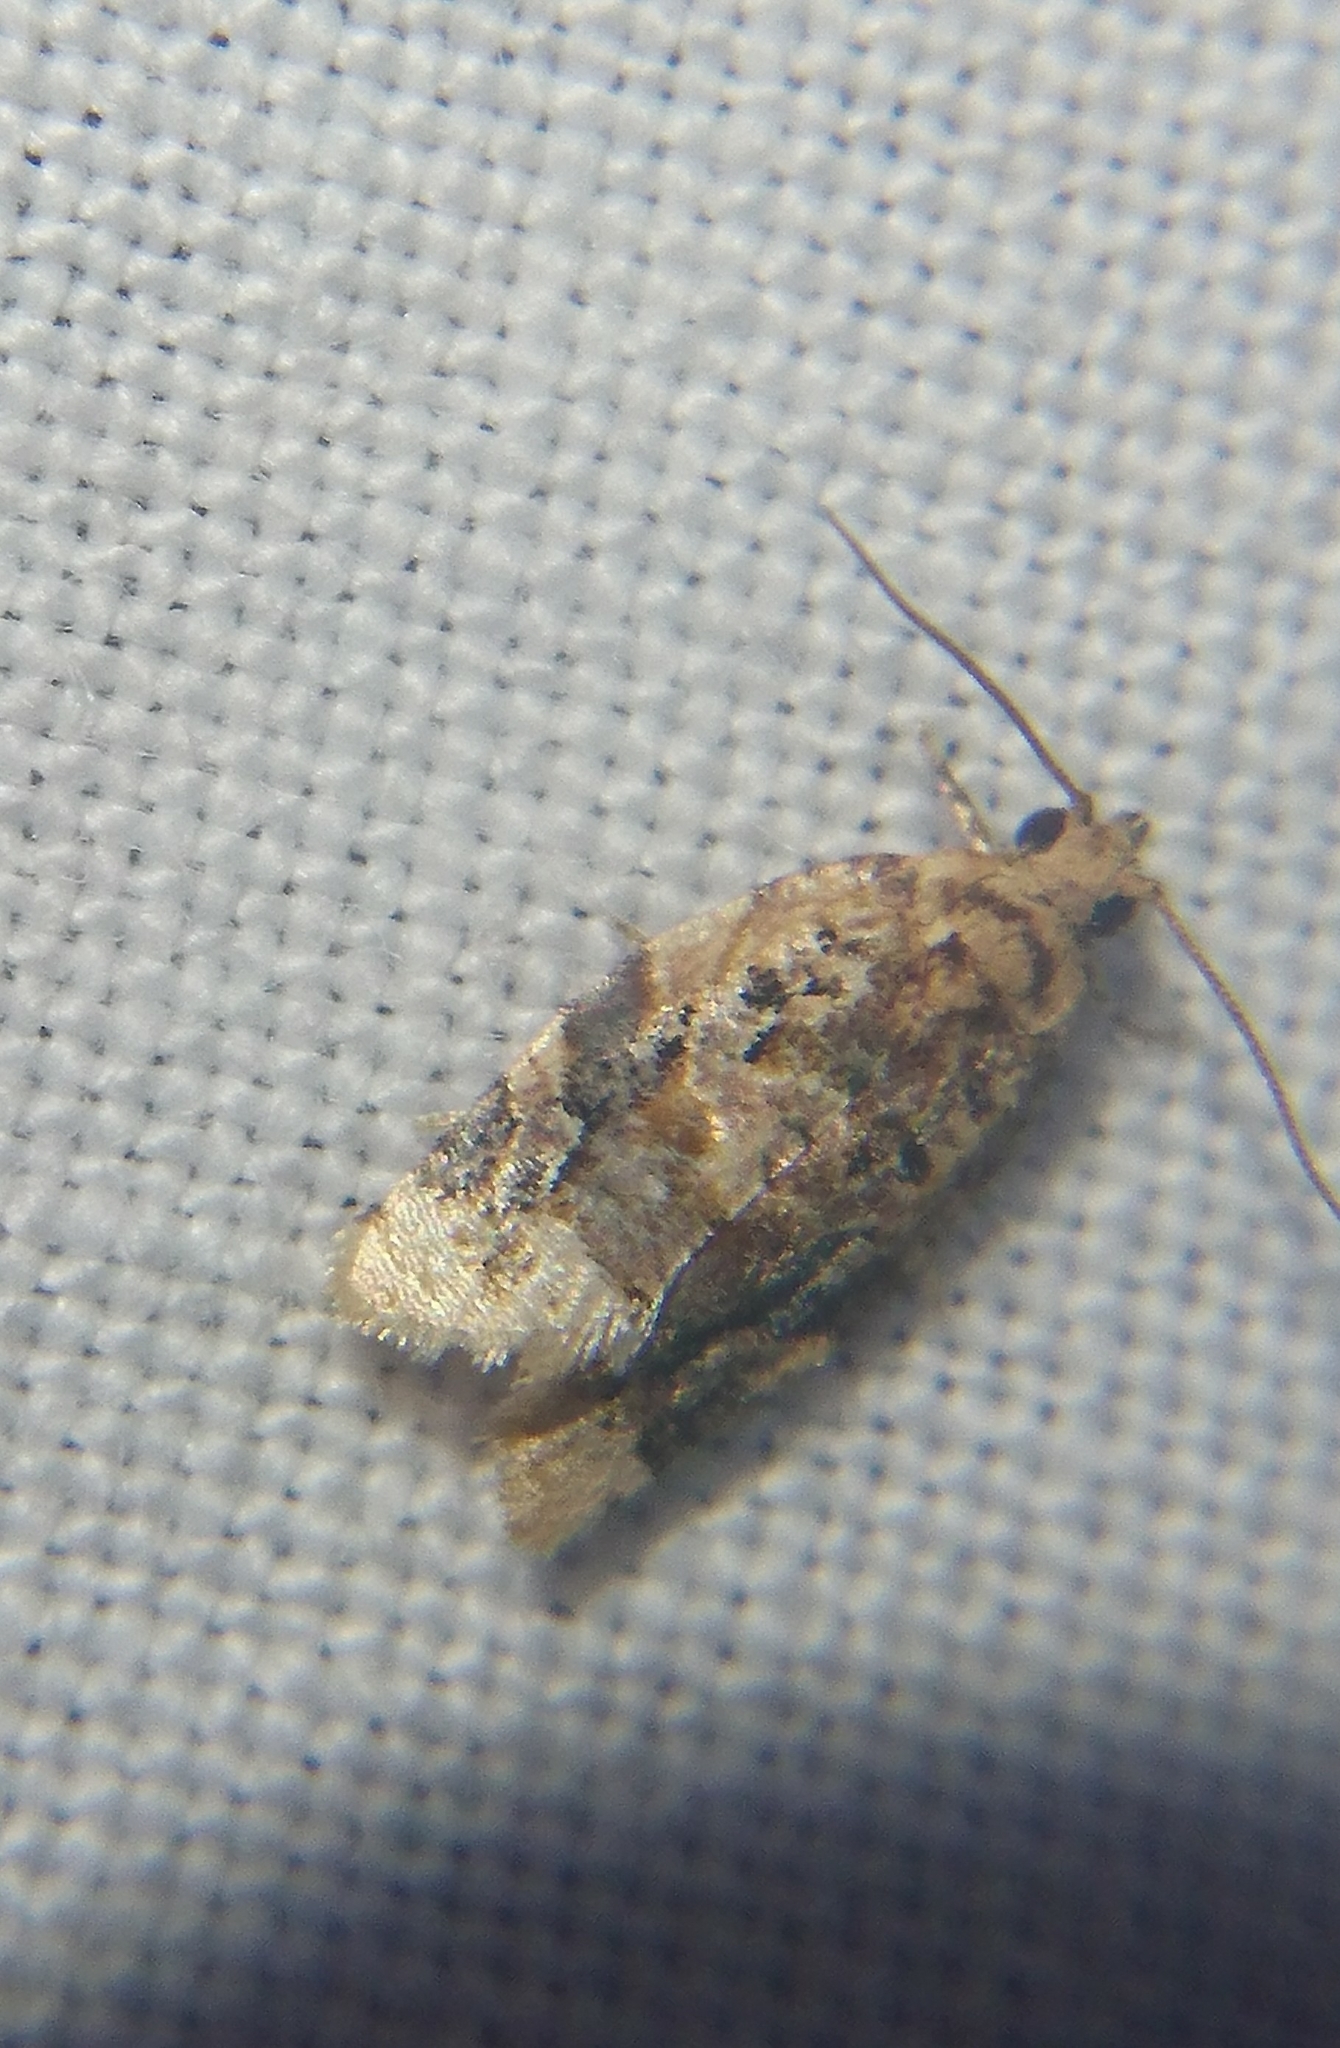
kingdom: Animalia
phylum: Arthropoda
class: Insecta
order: Lepidoptera
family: Tortricidae
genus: Argyrotaenia
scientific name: Argyrotaenia velutinana
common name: Red-banded leafroller moth
